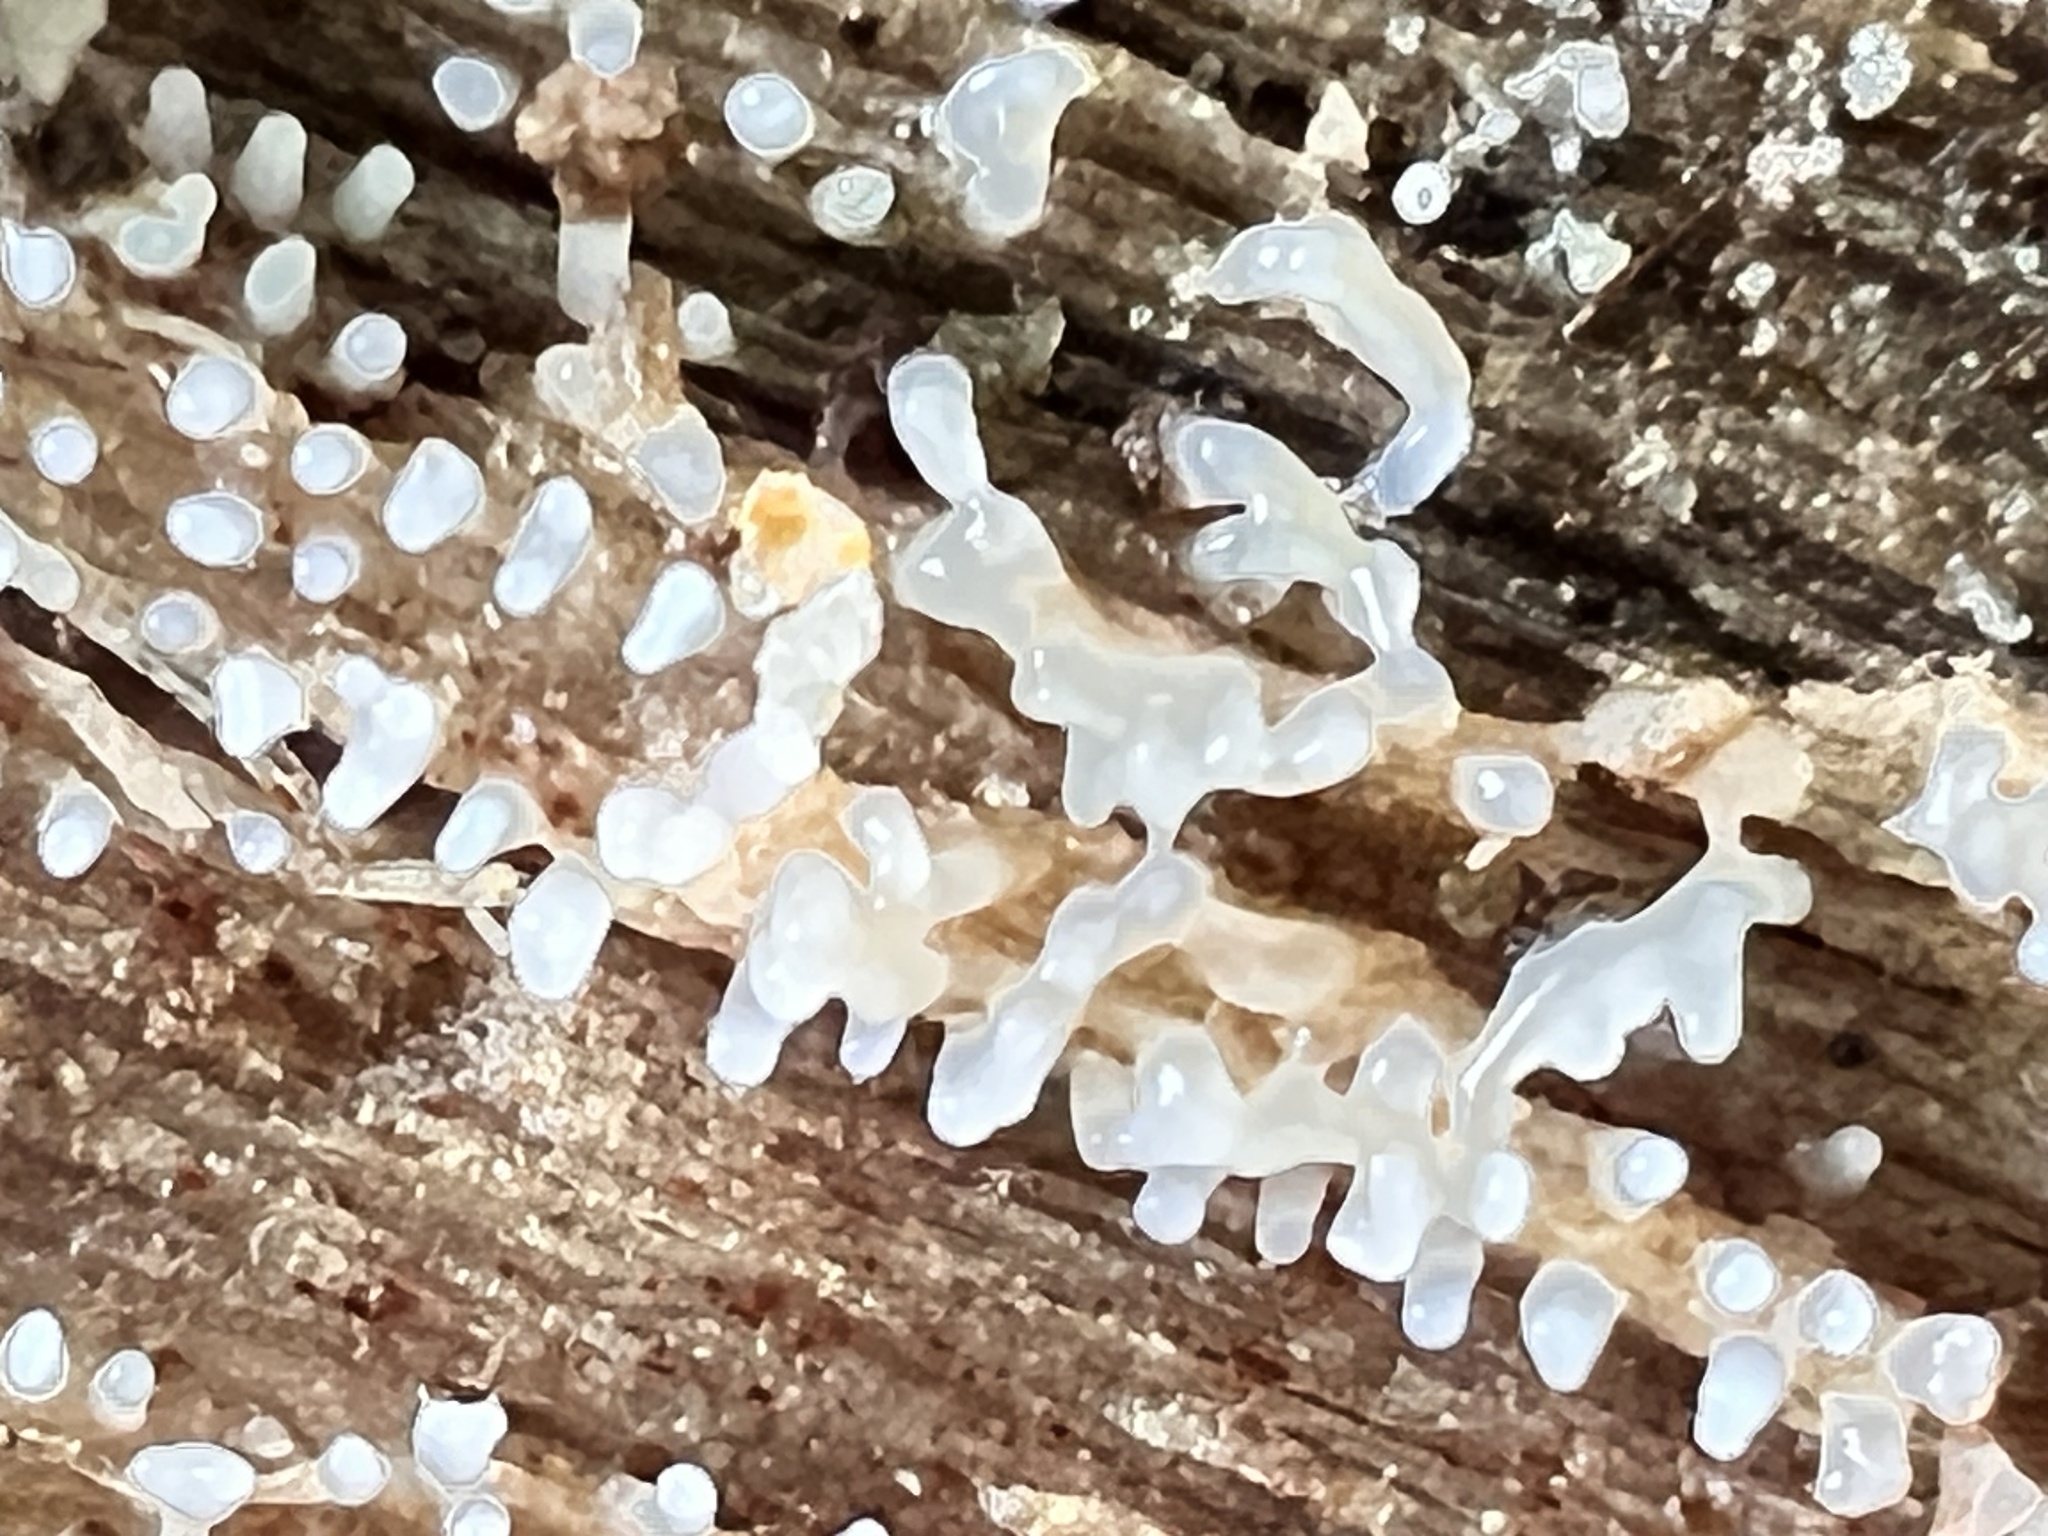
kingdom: Protozoa
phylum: Mycetozoa
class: Protosteliomycetes
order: Ceratiomyxales
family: Ceratiomyxaceae
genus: Ceratiomyxa
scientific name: Ceratiomyxa fruticulosa
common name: Honeycomb coral slime mold
